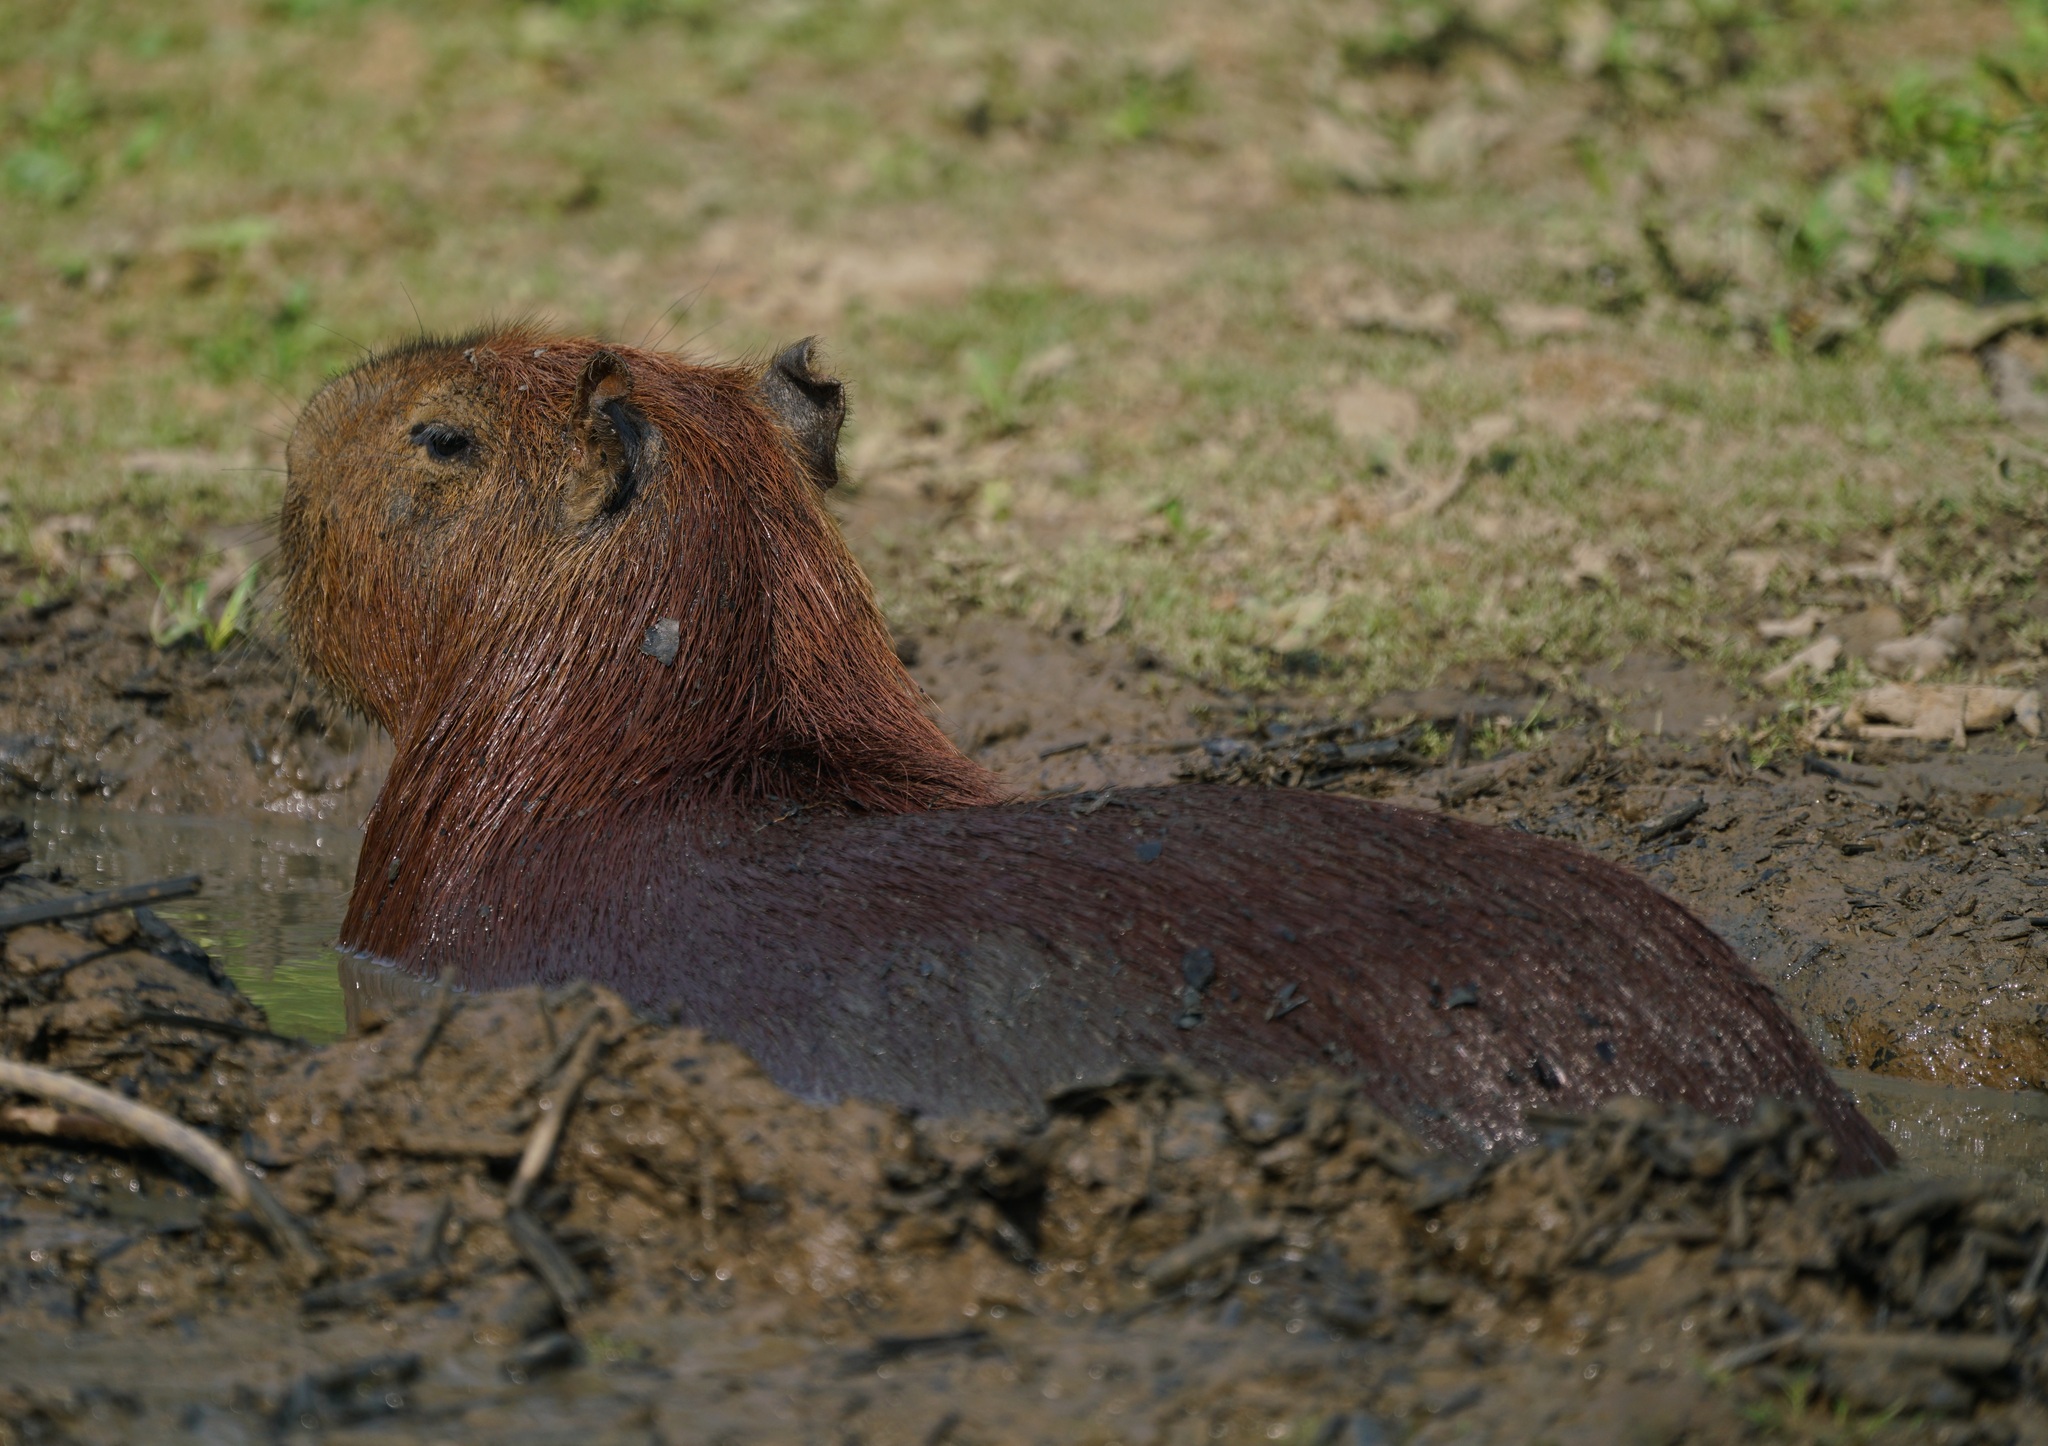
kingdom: Animalia
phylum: Chordata
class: Mammalia
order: Rodentia
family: Caviidae
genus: Hydrochoerus
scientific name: Hydrochoerus hydrochaeris
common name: Capybara
